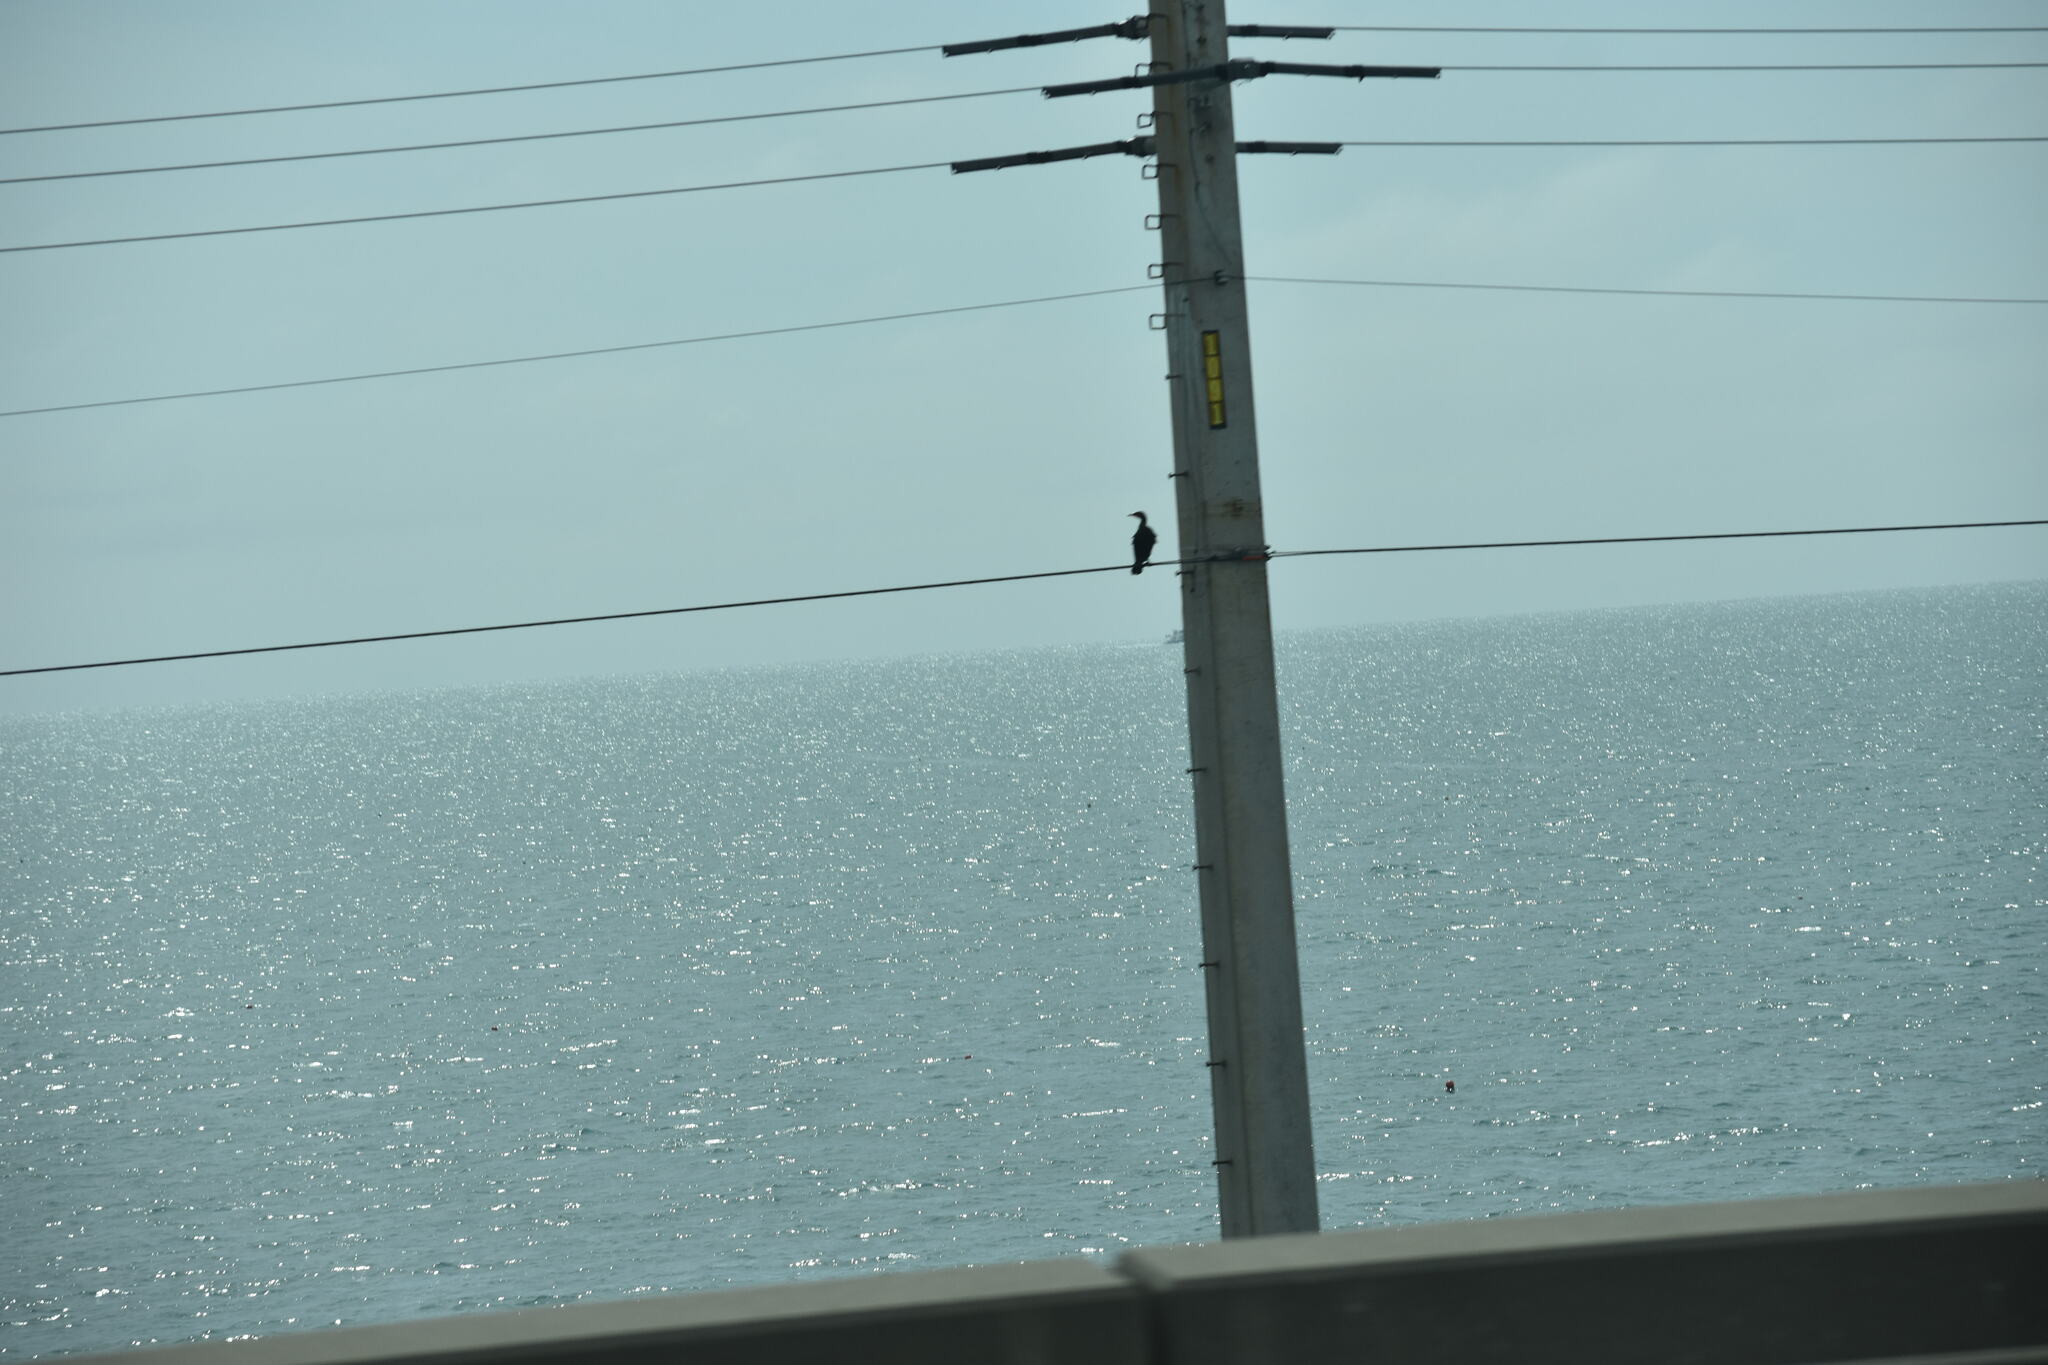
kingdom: Animalia
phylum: Chordata
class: Aves
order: Suliformes
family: Phalacrocoracidae
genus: Phalacrocorax
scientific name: Phalacrocorax auritus
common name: Double-crested cormorant
